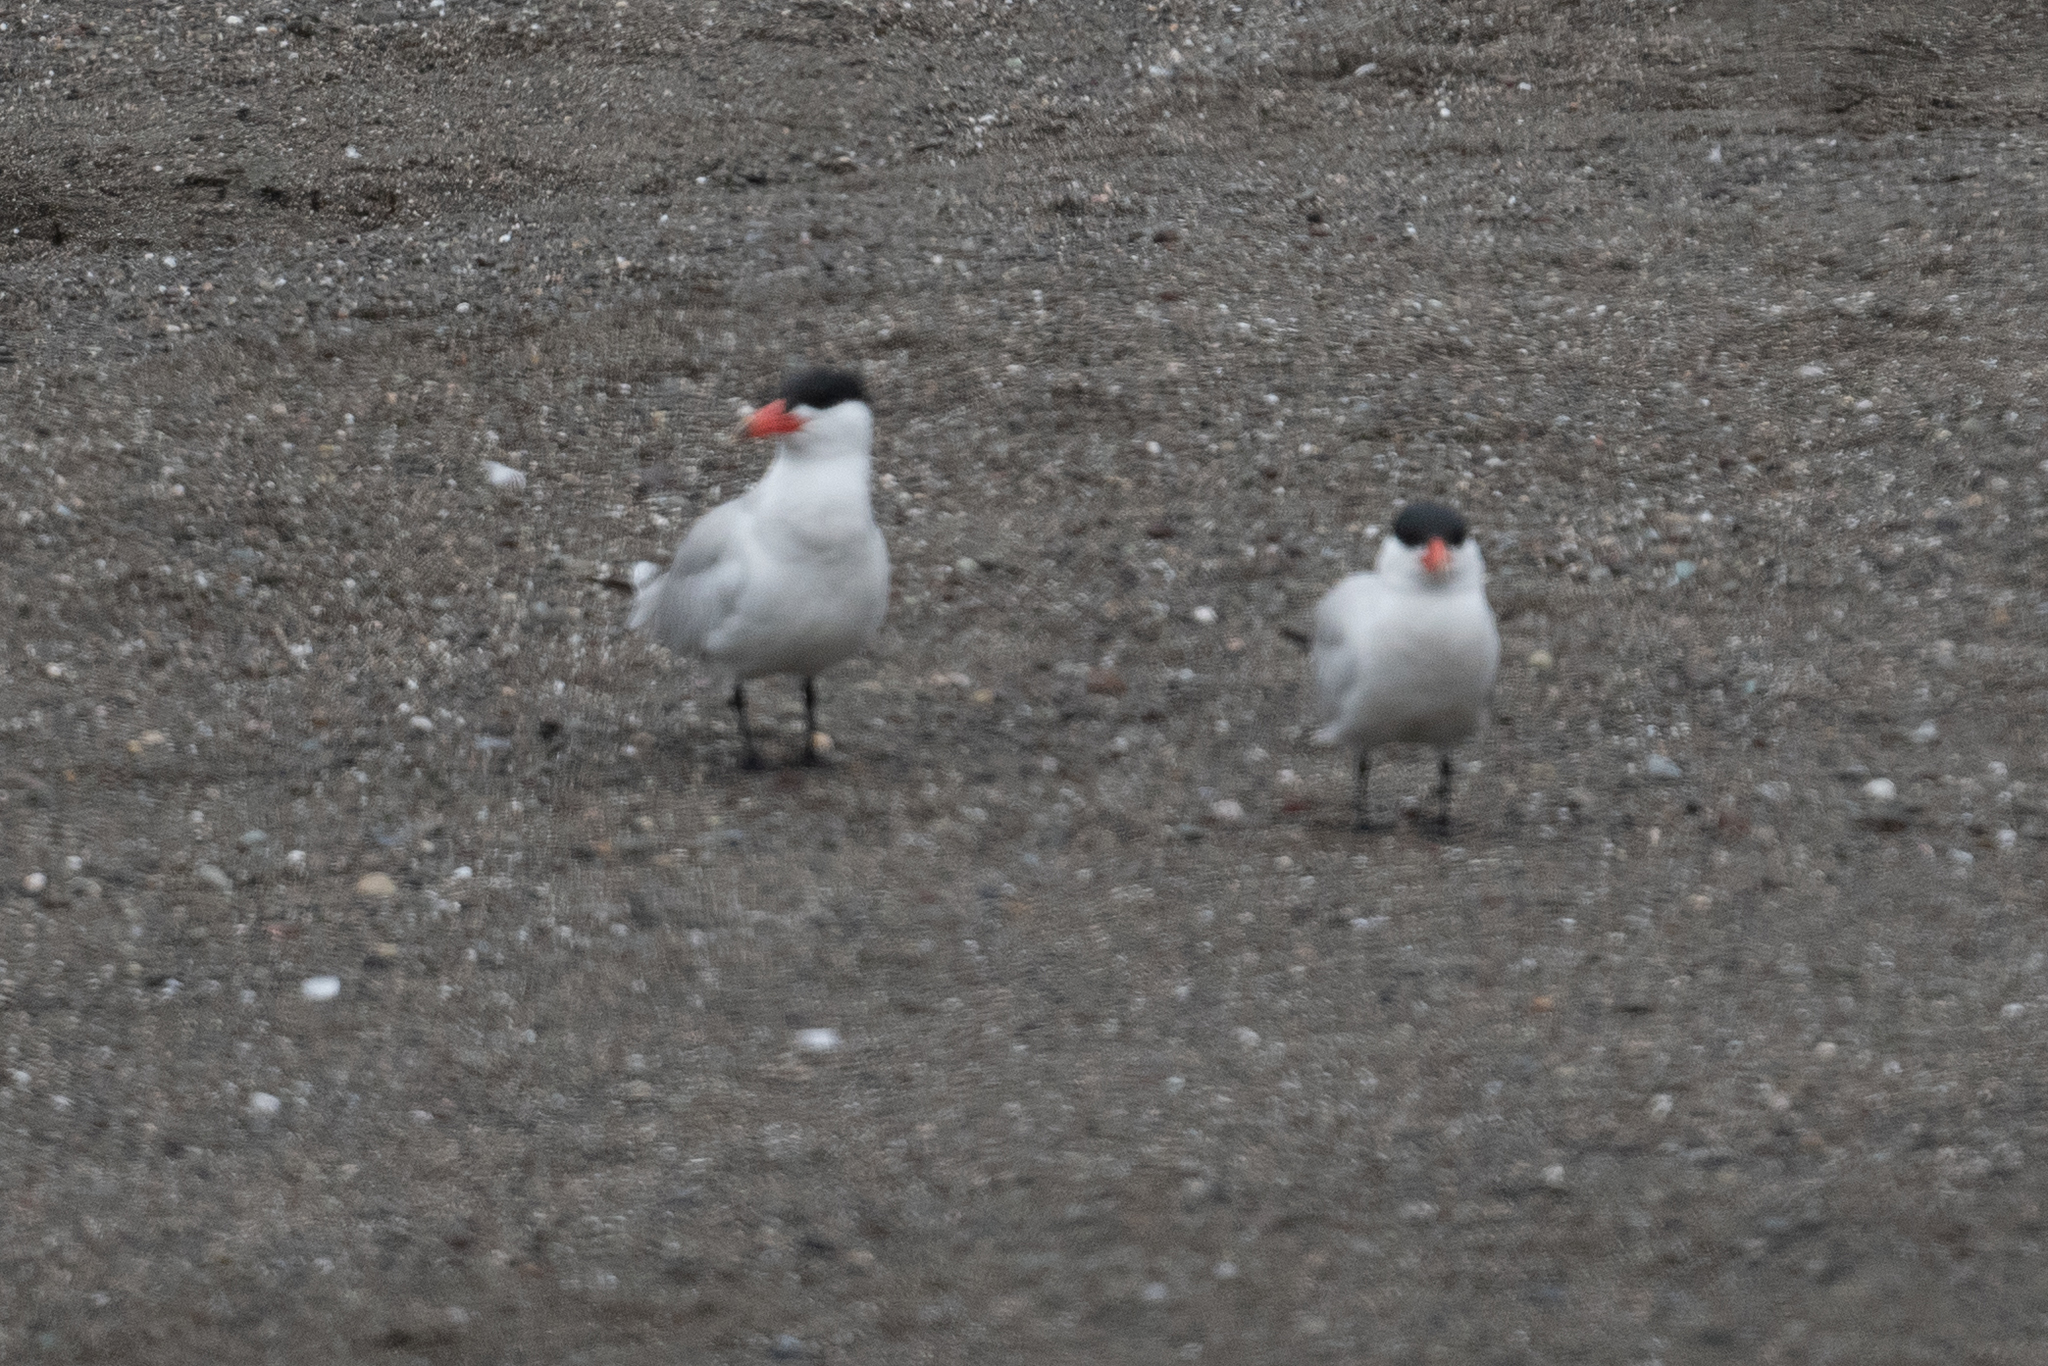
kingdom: Animalia
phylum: Chordata
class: Aves
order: Charadriiformes
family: Laridae
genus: Hydroprogne
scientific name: Hydroprogne caspia
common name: Caspian tern
